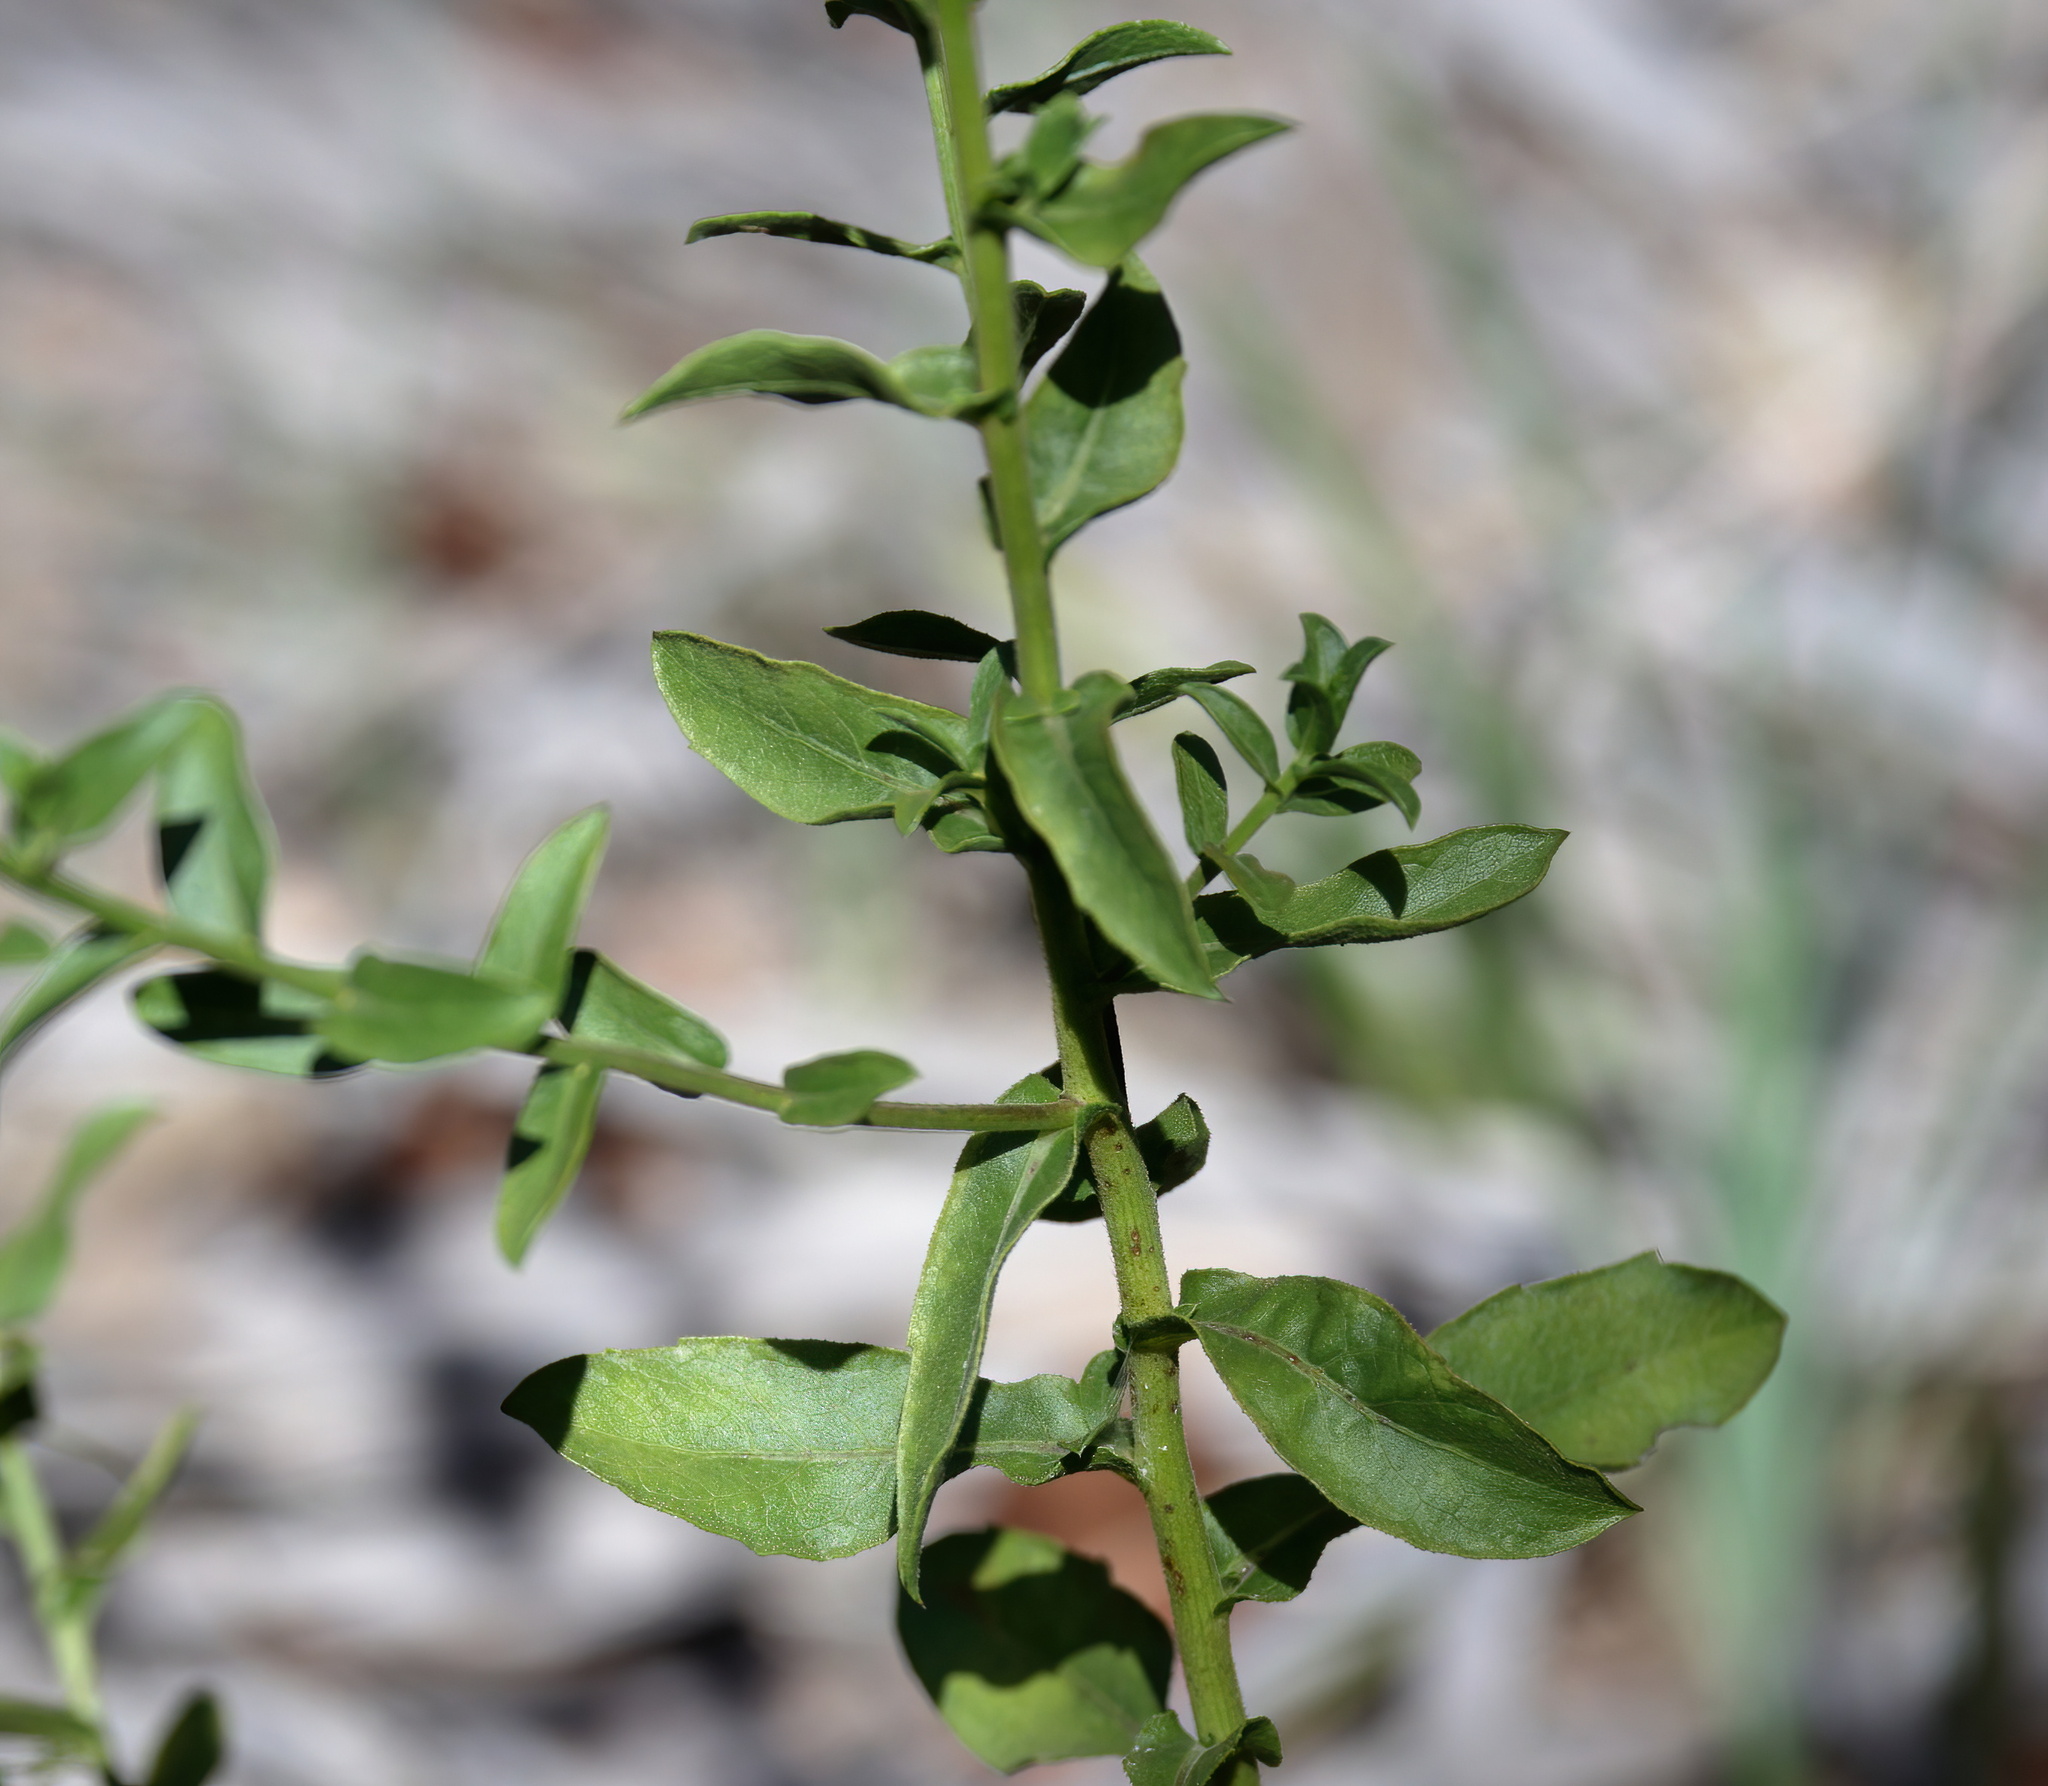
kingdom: Plantae
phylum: Tracheophyta
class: Magnoliopsida
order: Asterales
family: Asteraceae
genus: Heterotheca
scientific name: Heterotheca subaxillaris
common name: Camphorweed
